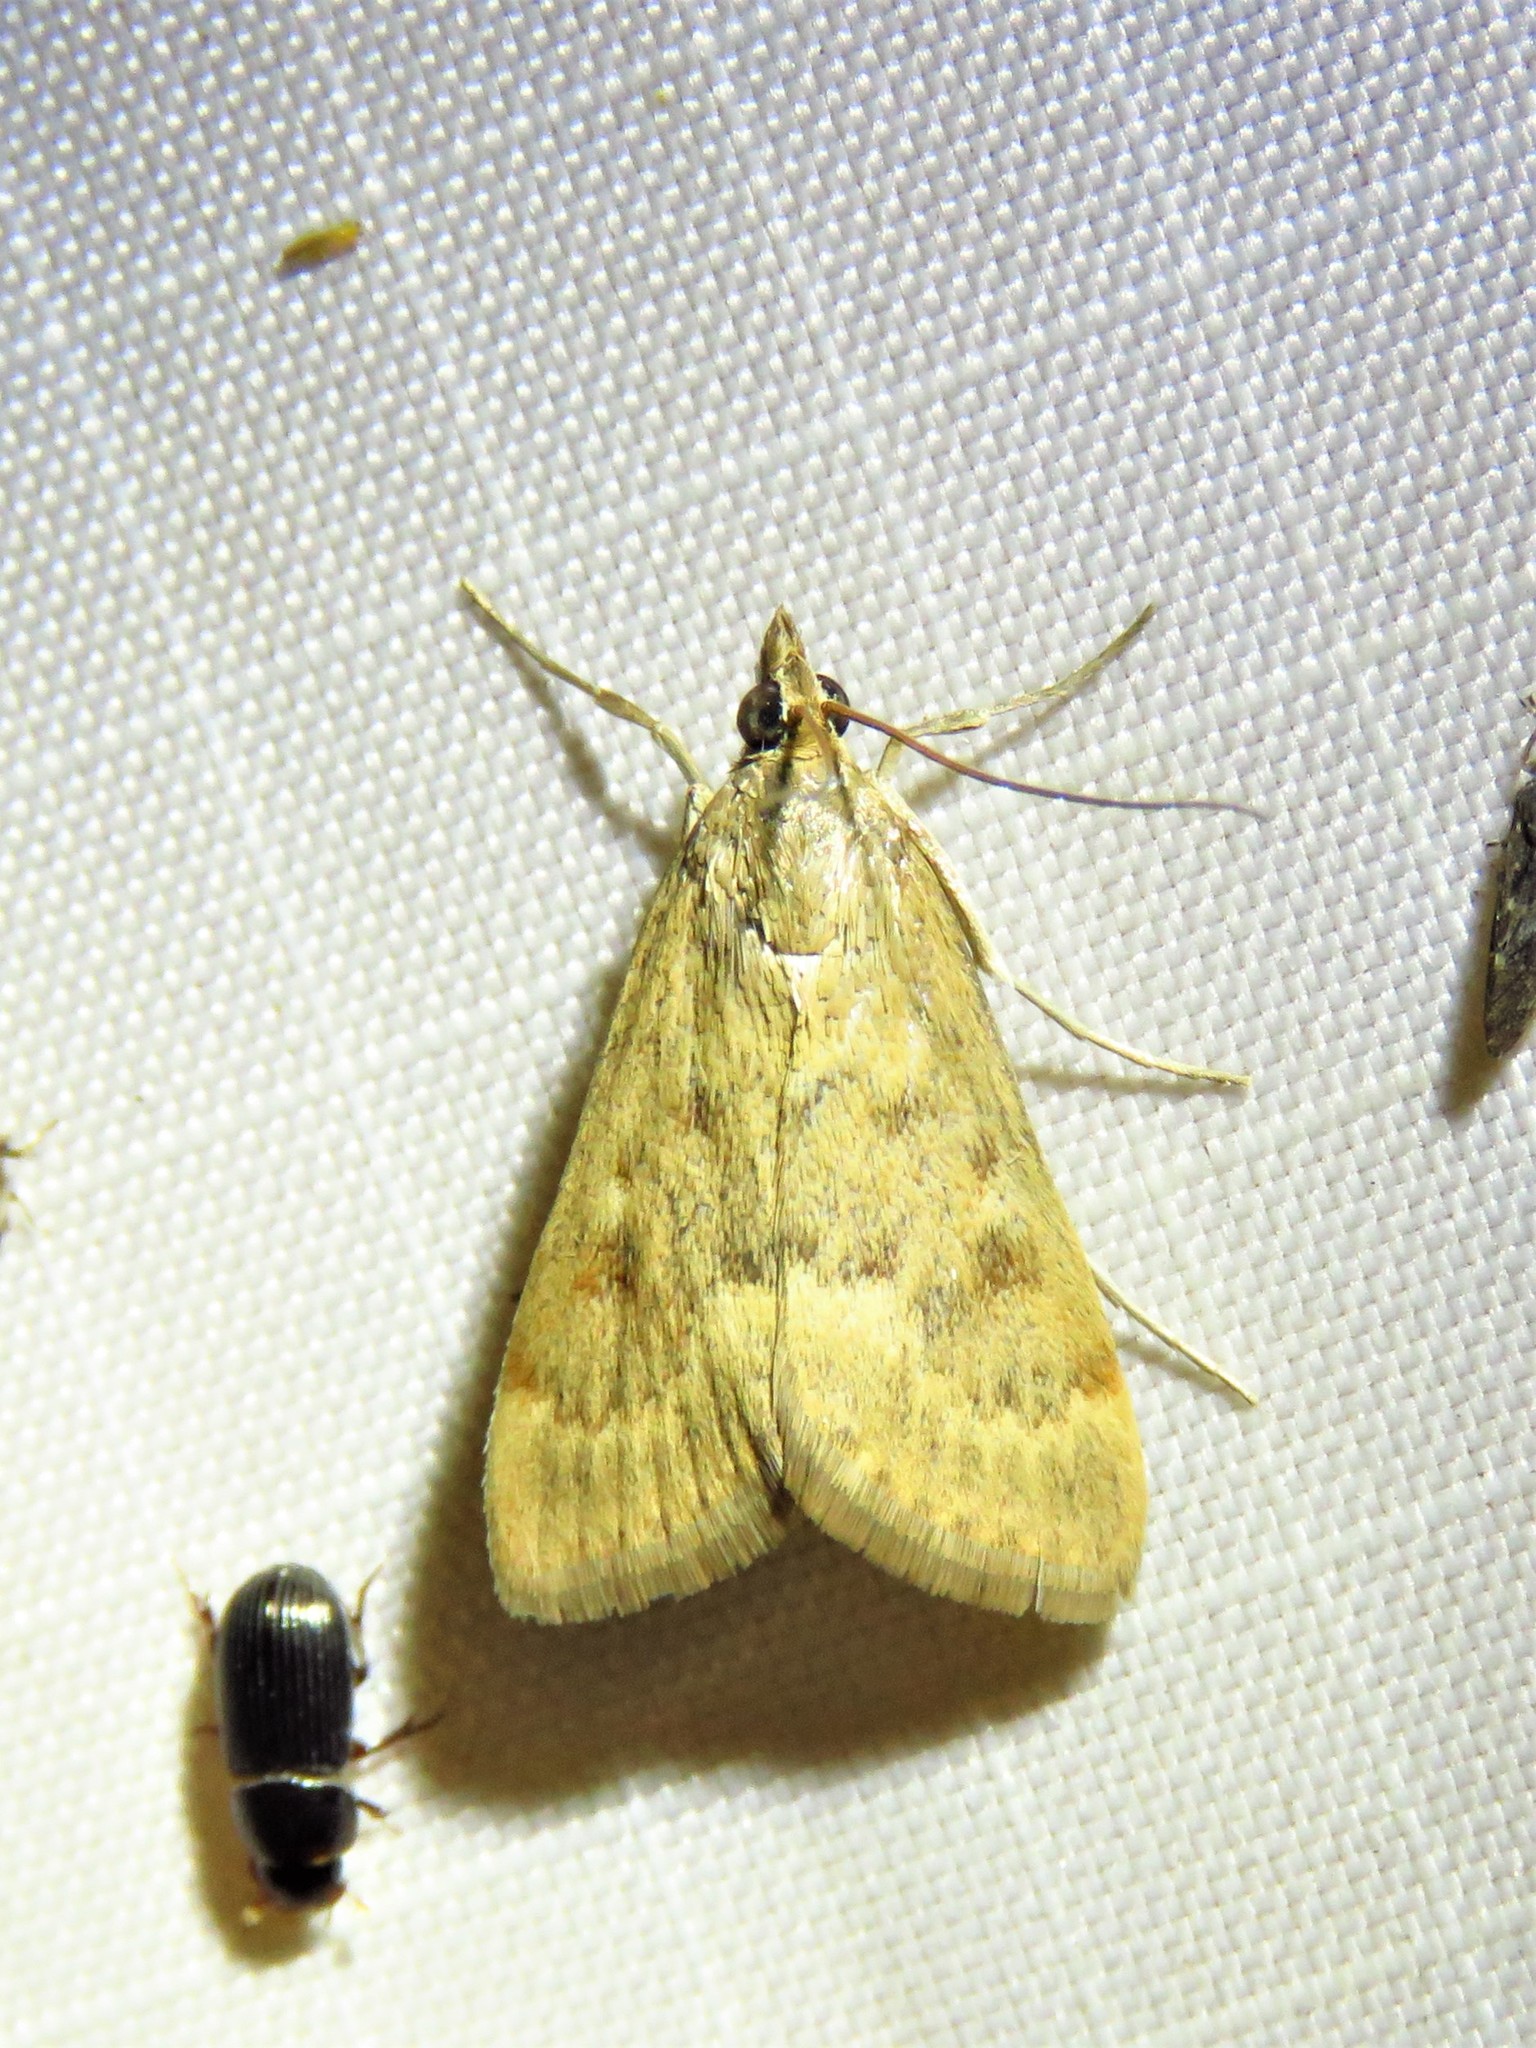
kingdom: Animalia
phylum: Arthropoda
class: Insecta
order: Lepidoptera
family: Crambidae
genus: Achyra
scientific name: Achyra rantalis
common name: Garden webworm
